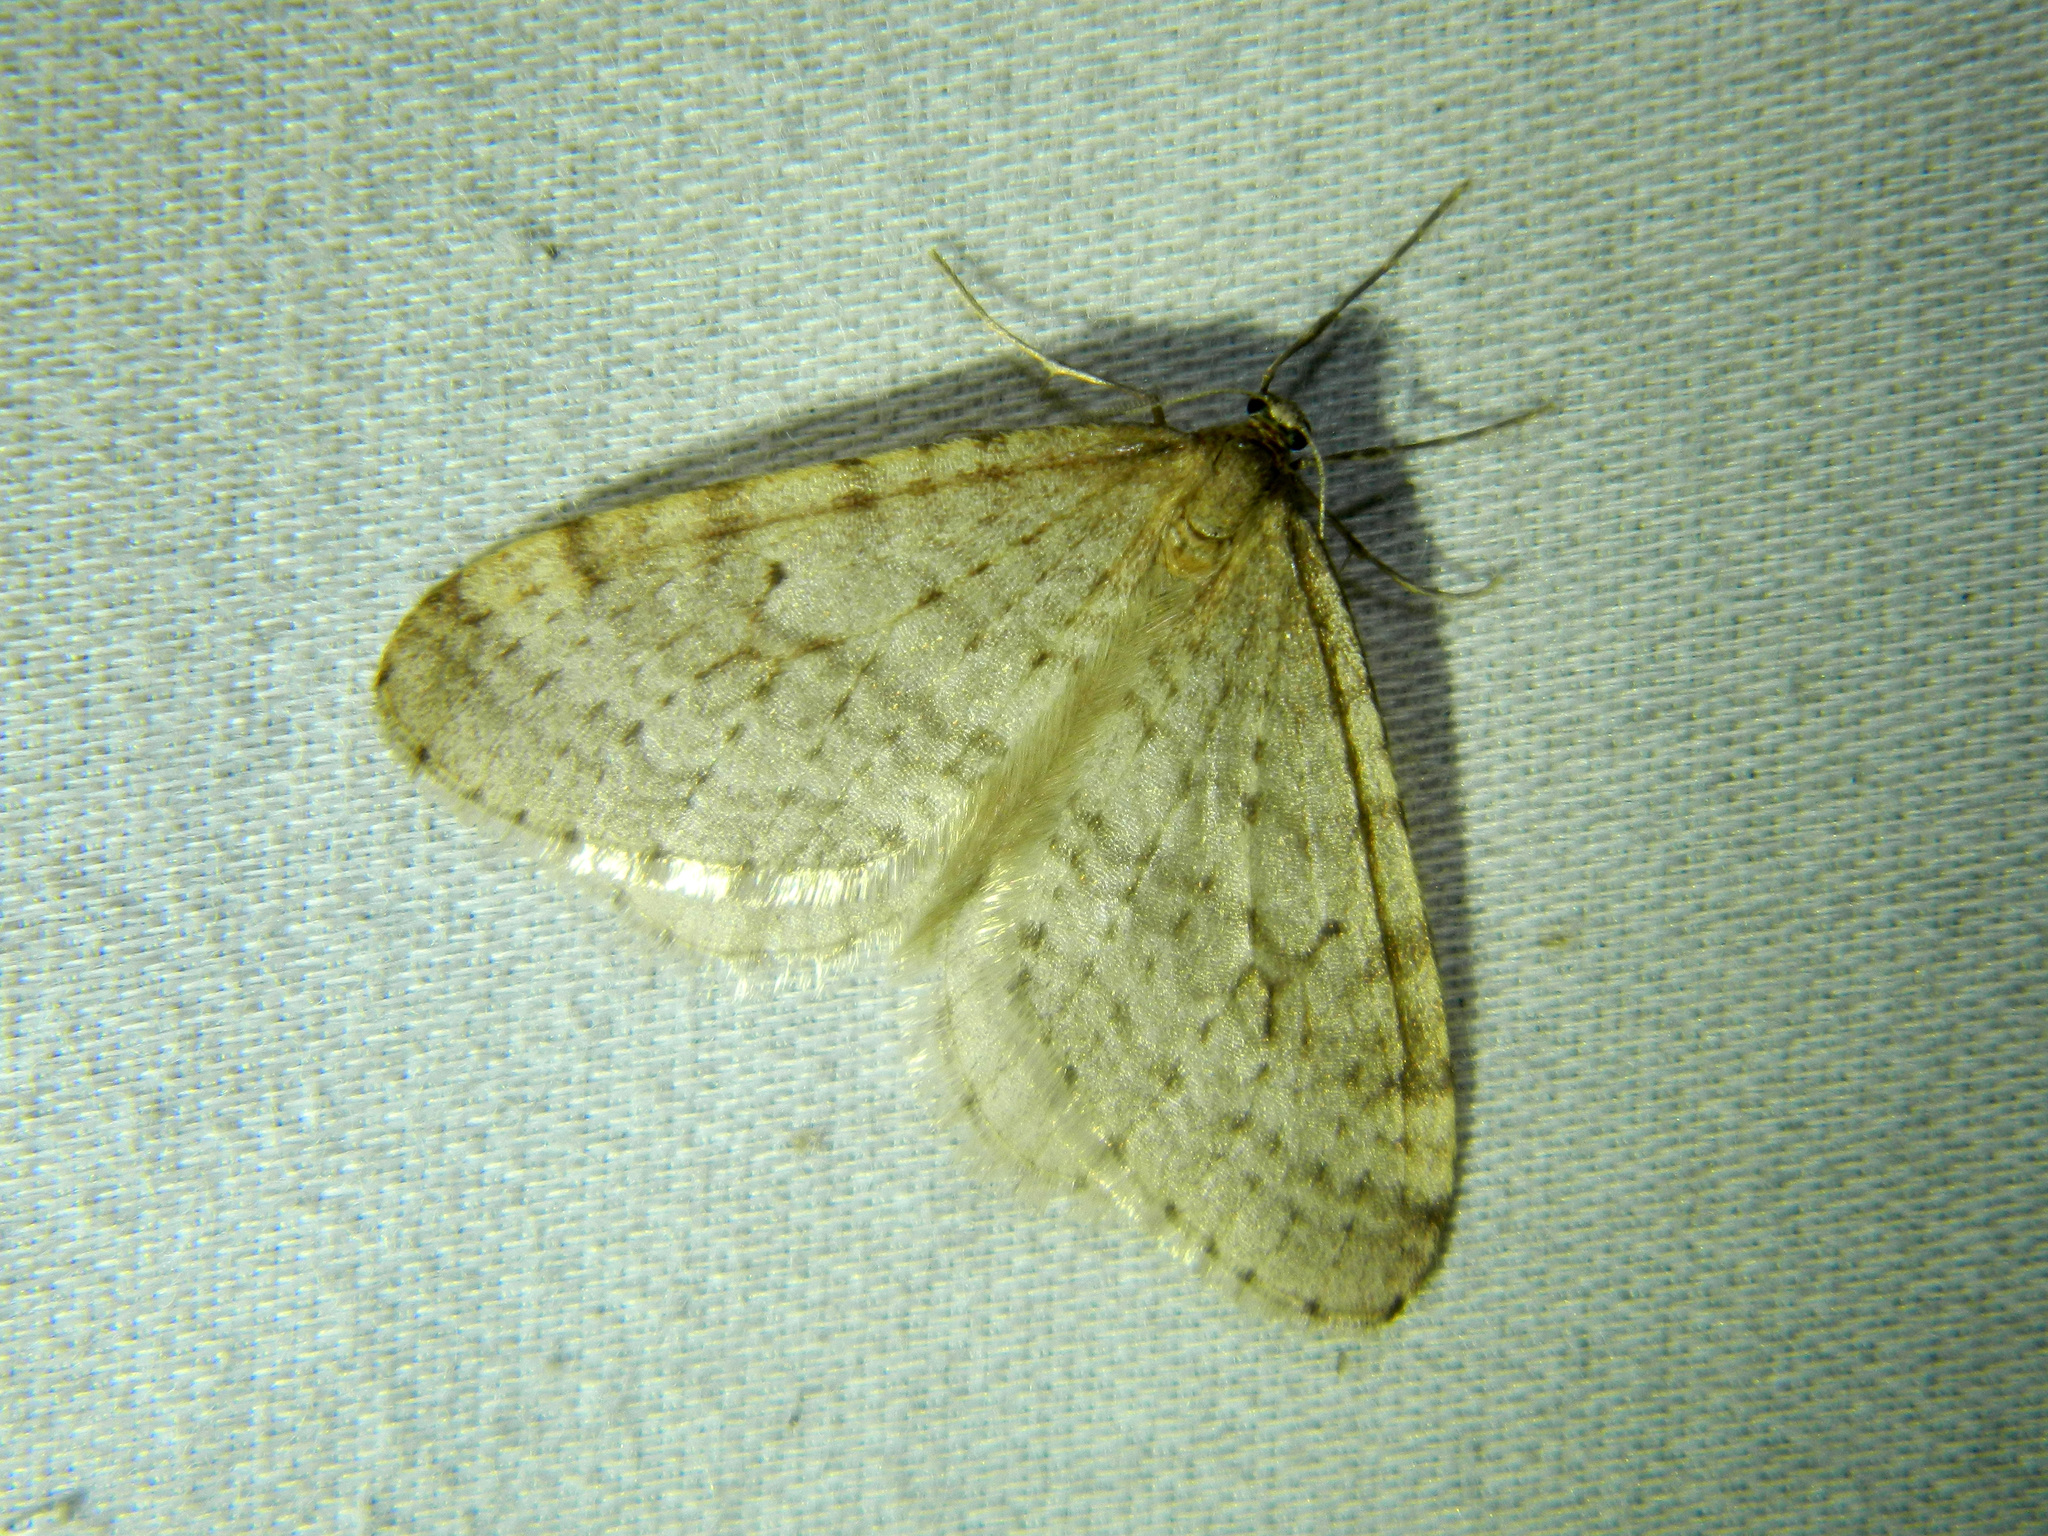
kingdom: Animalia
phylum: Arthropoda
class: Insecta
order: Lepidoptera
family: Geometridae
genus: Operophtera
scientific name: Operophtera bruceata
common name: Bruce spanworm
